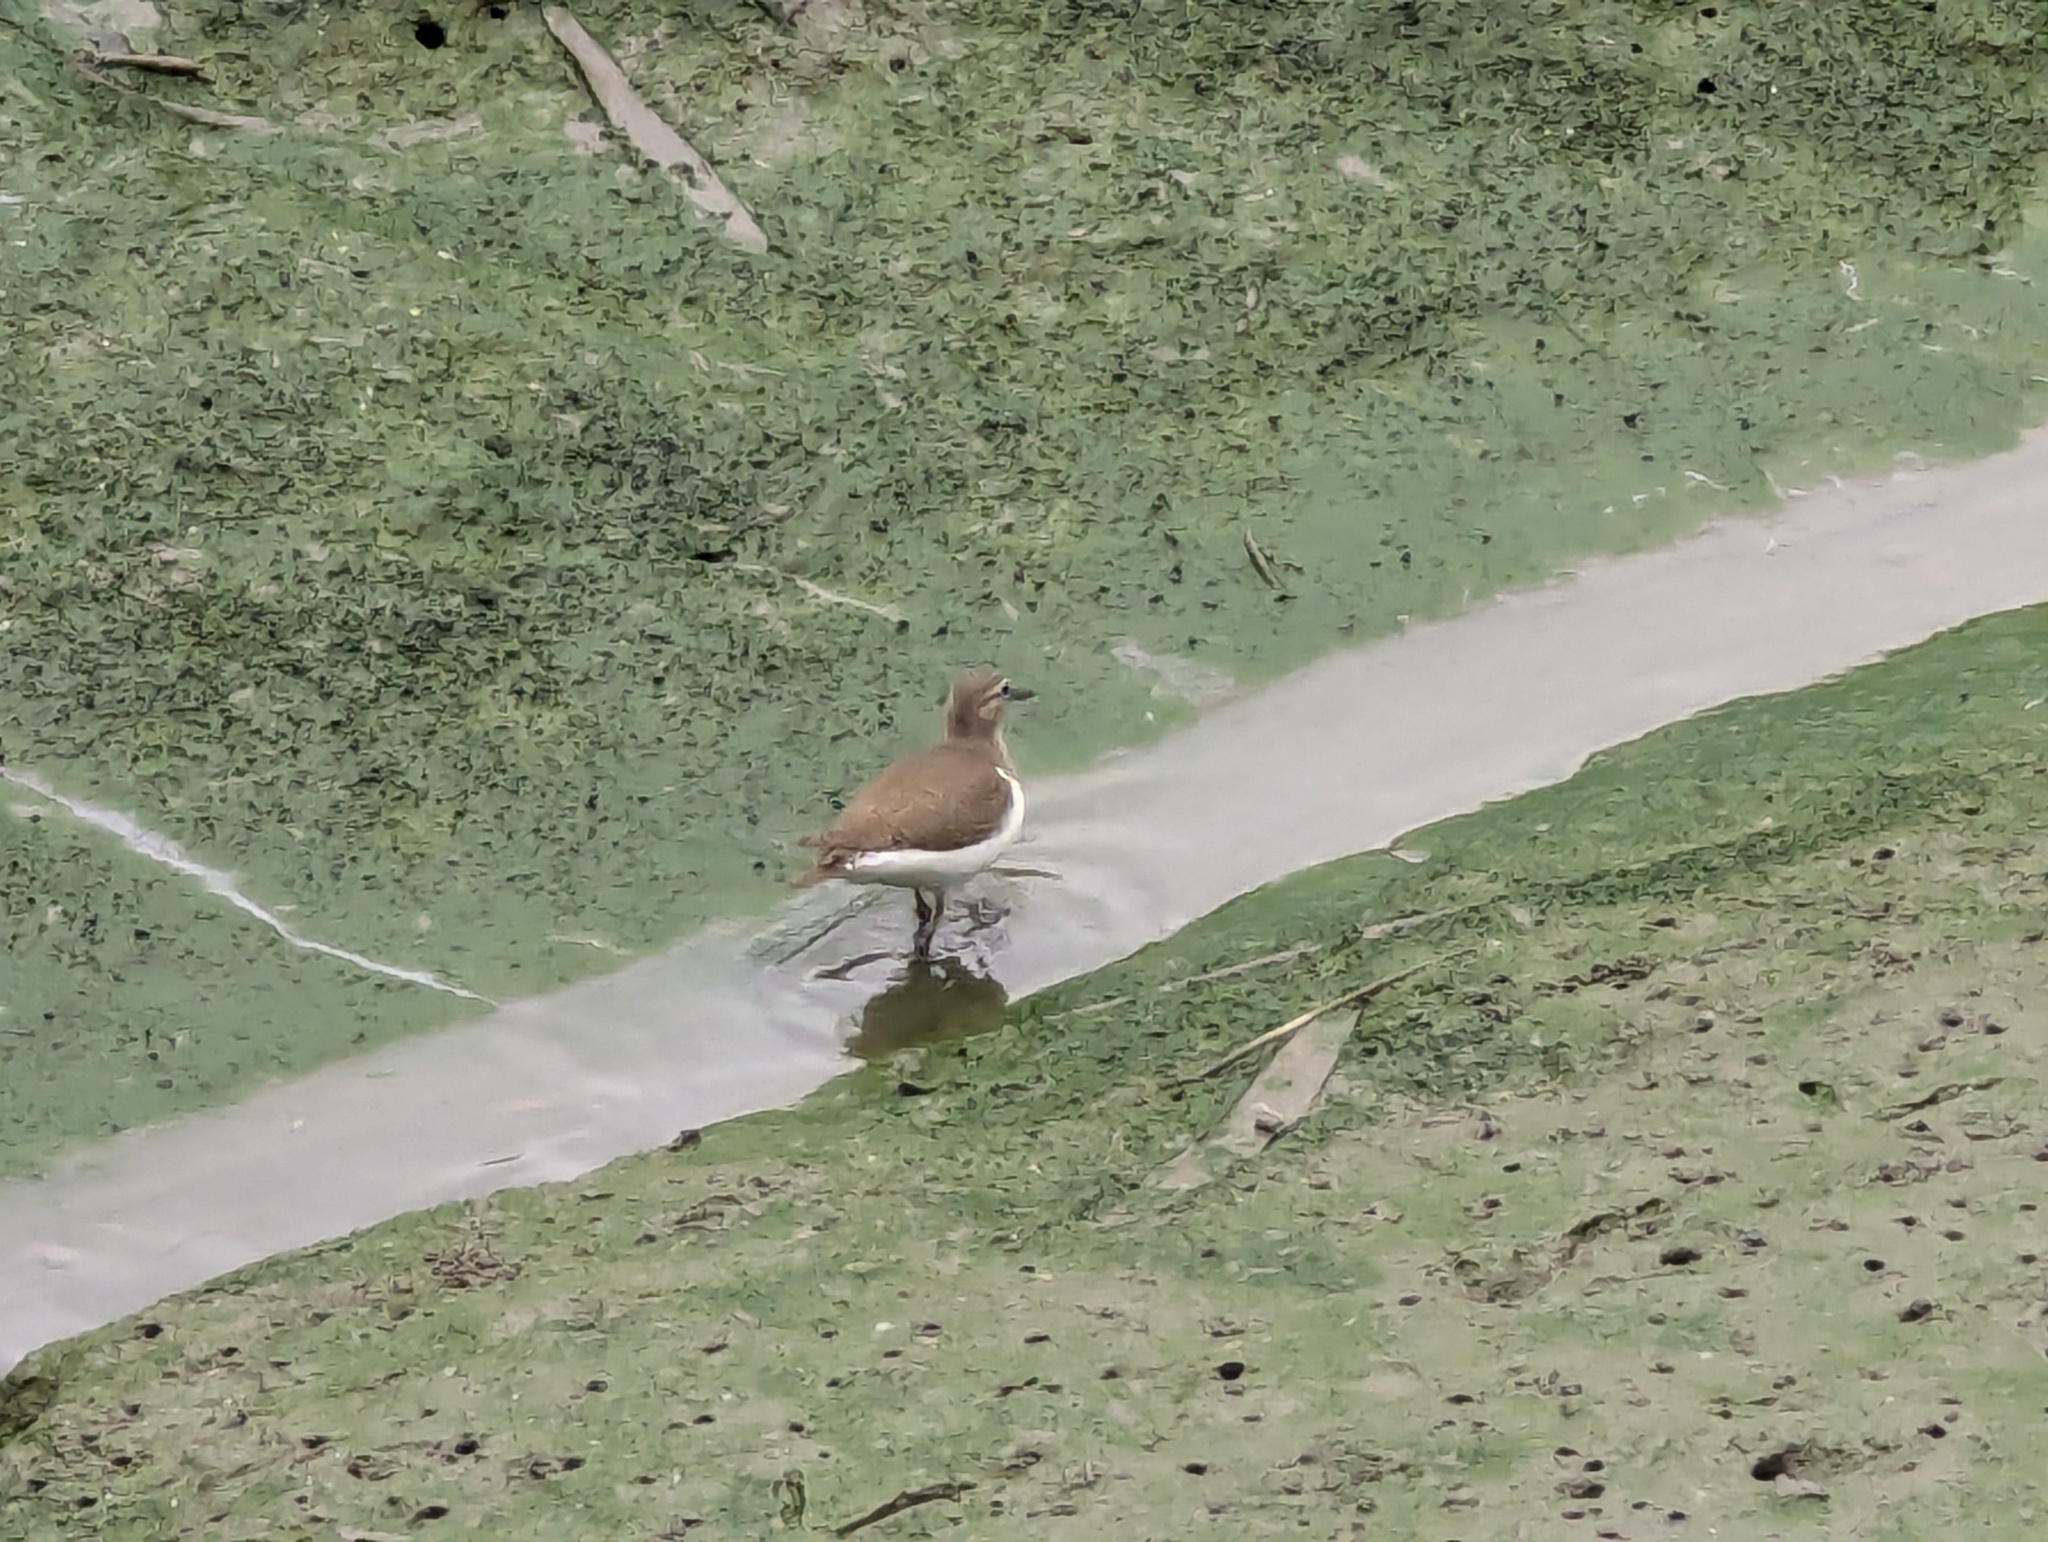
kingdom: Animalia
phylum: Chordata
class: Aves
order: Charadriiformes
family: Scolopacidae
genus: Actitis
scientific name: Actitis hypoleucos
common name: Common sandpiper
